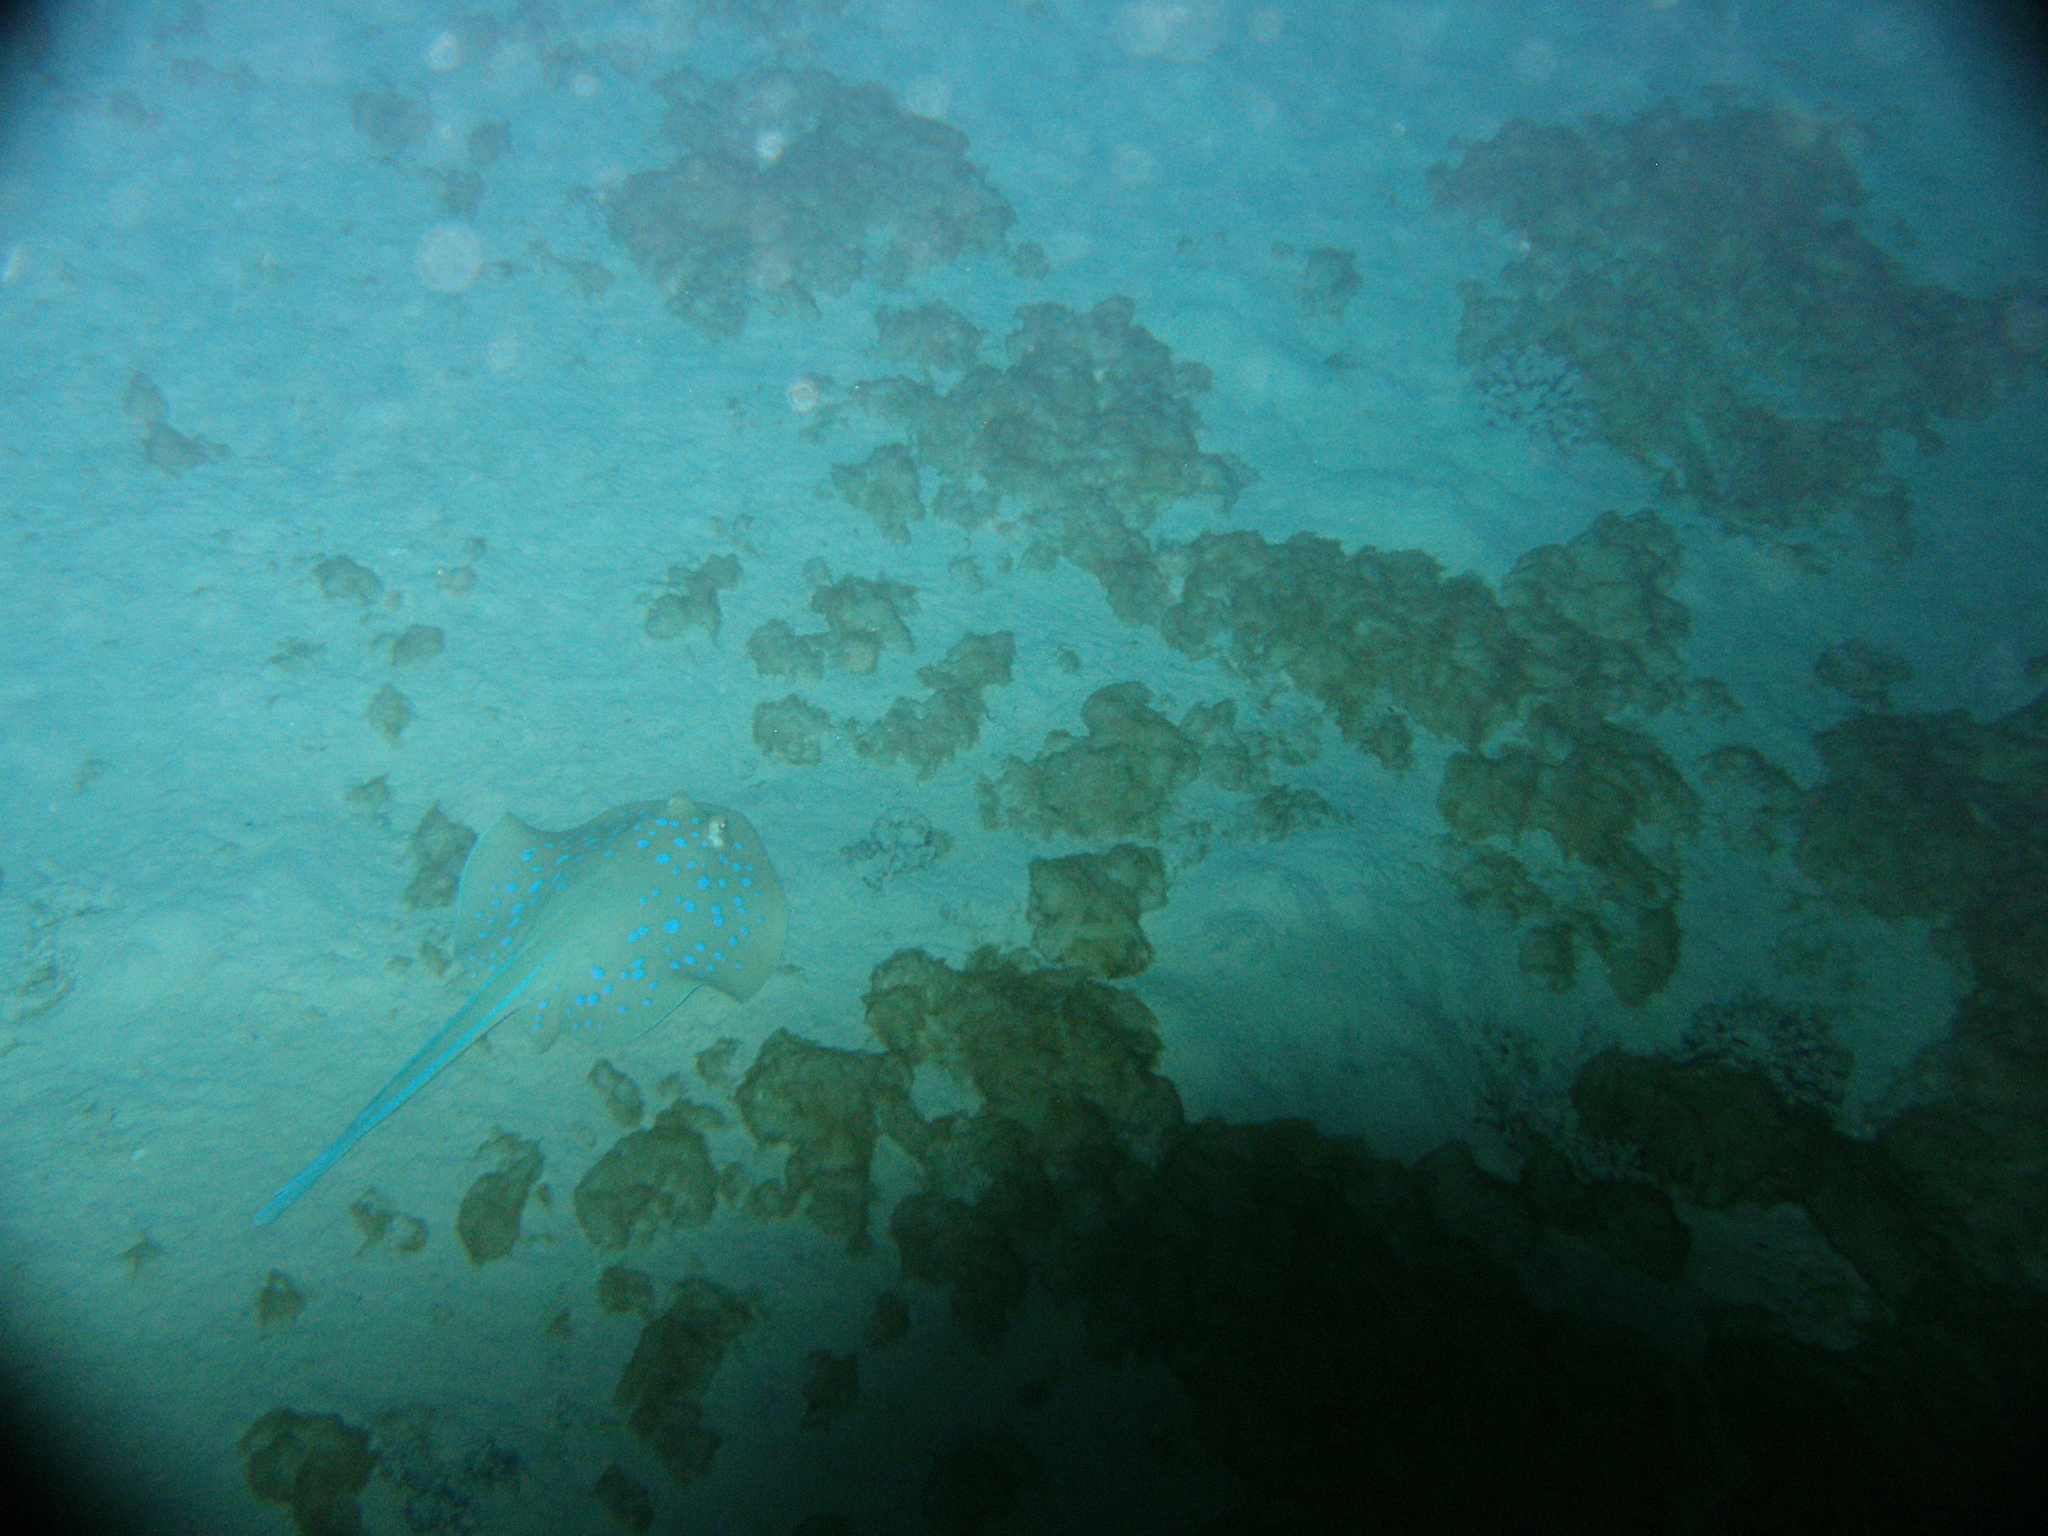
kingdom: Animalia
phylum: Chordata
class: Elasmobranchii
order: Myliobatiformes
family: Dasyatidae
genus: Taeniura
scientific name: Taeniura lymma
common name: Bluespotted ribbontail ray
